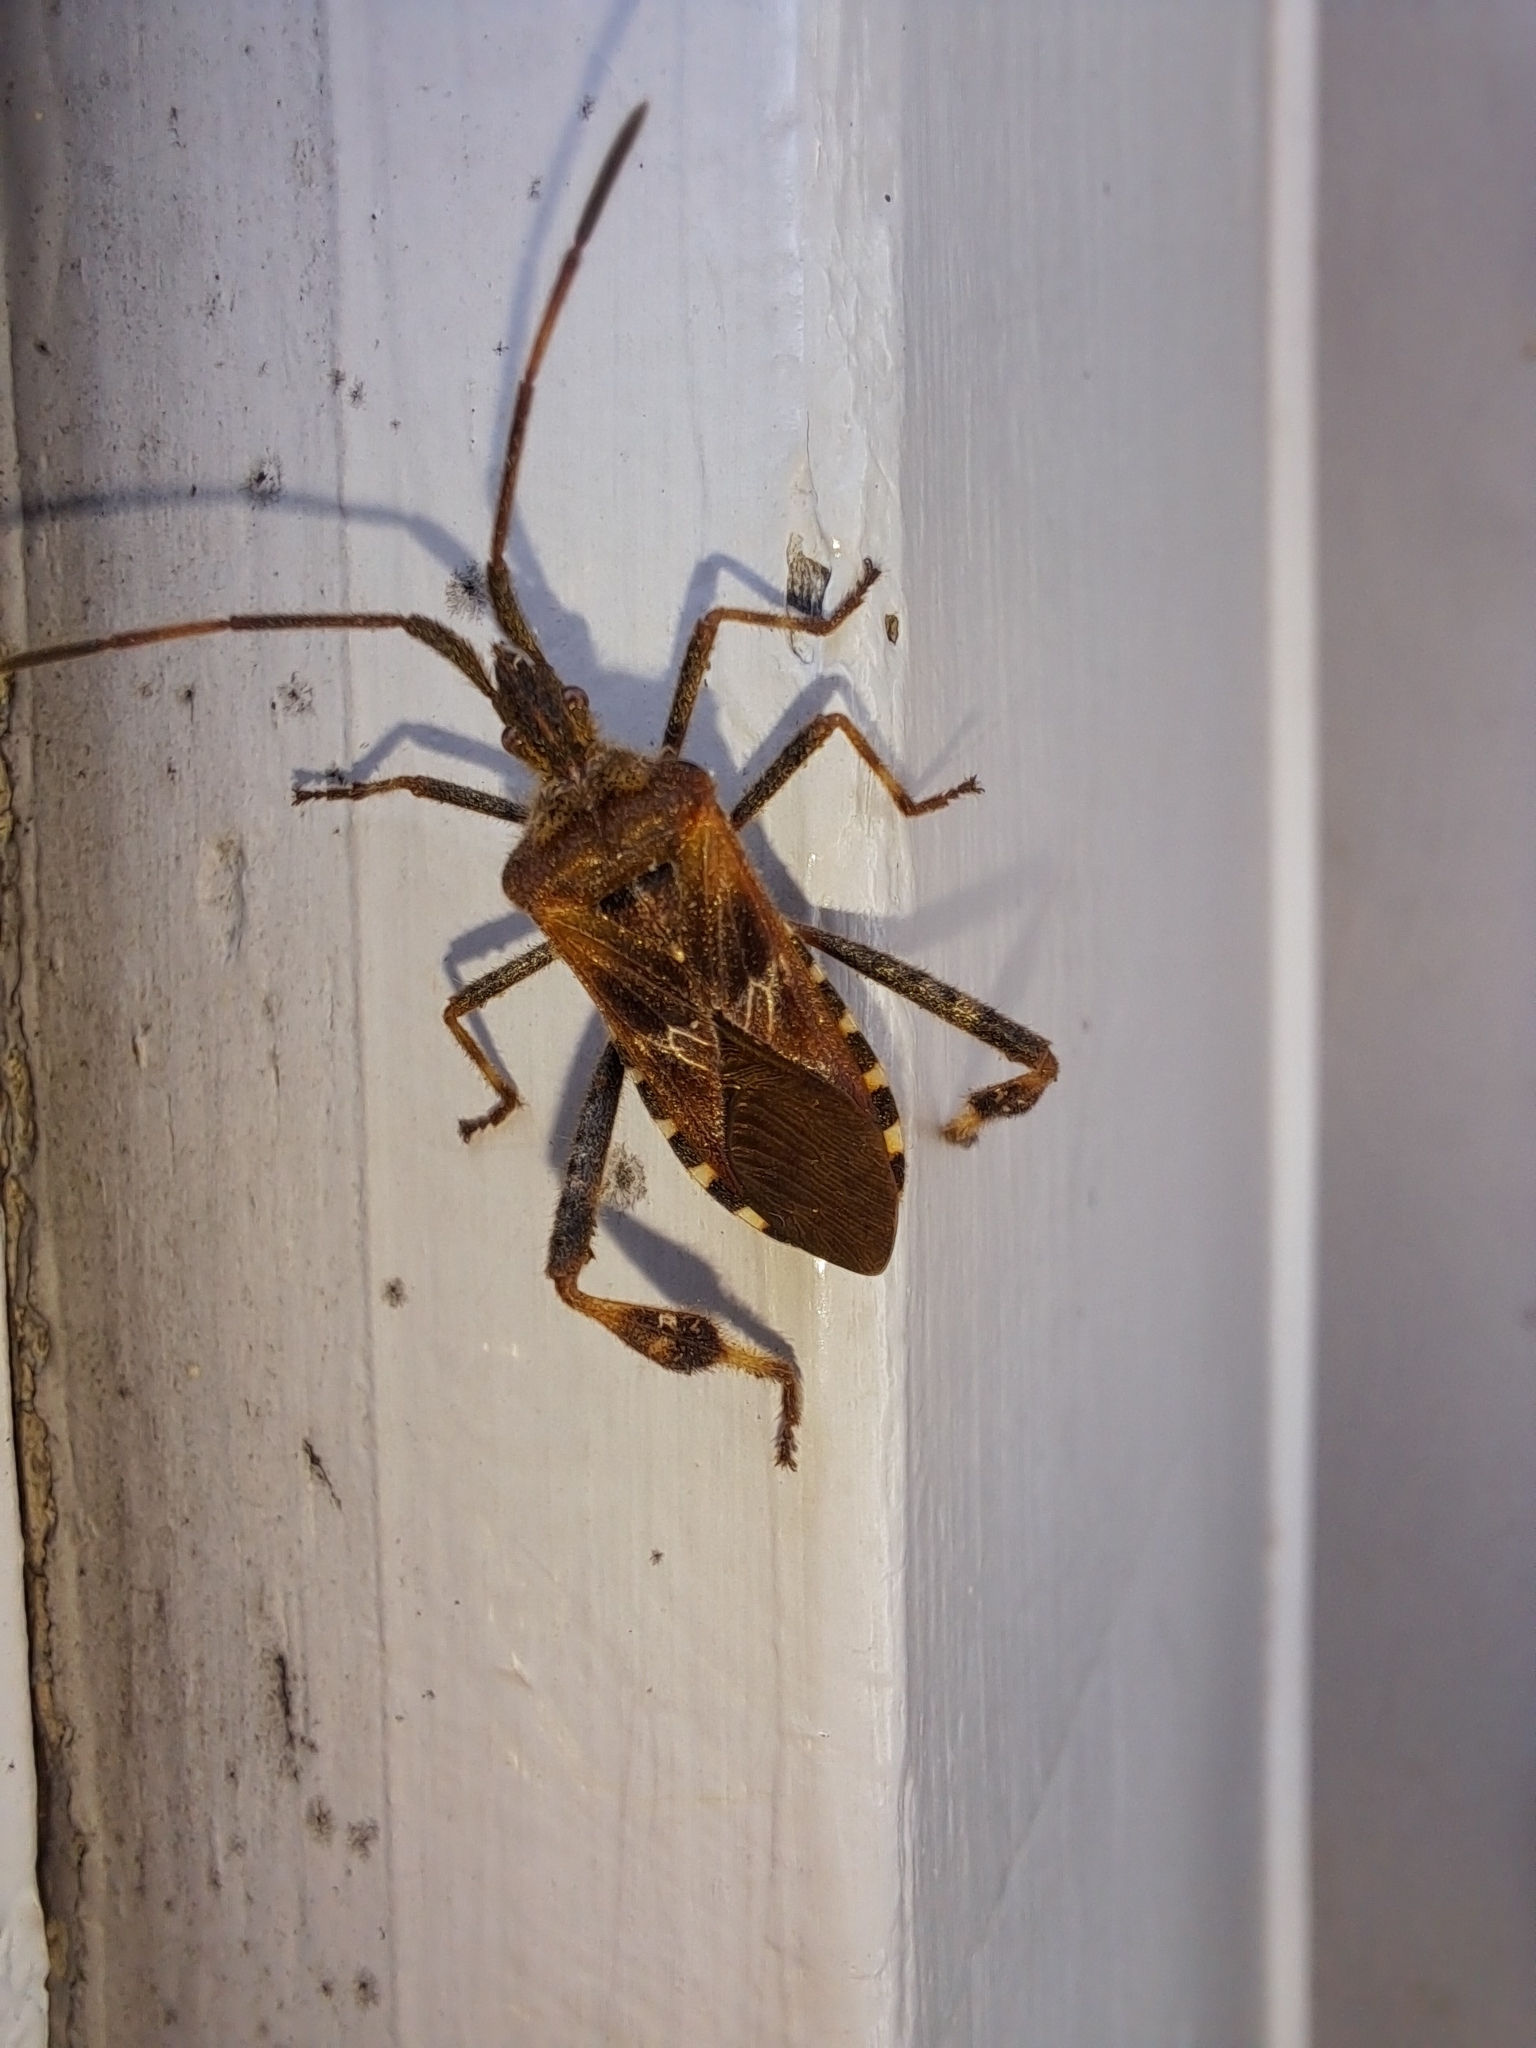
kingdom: Animalia
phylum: Arthropoda
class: Insecta
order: Hemiptera
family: Coreidae
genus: Leptoglossus
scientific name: Leptoglossus occidentalis
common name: Western conifer-seed bug
